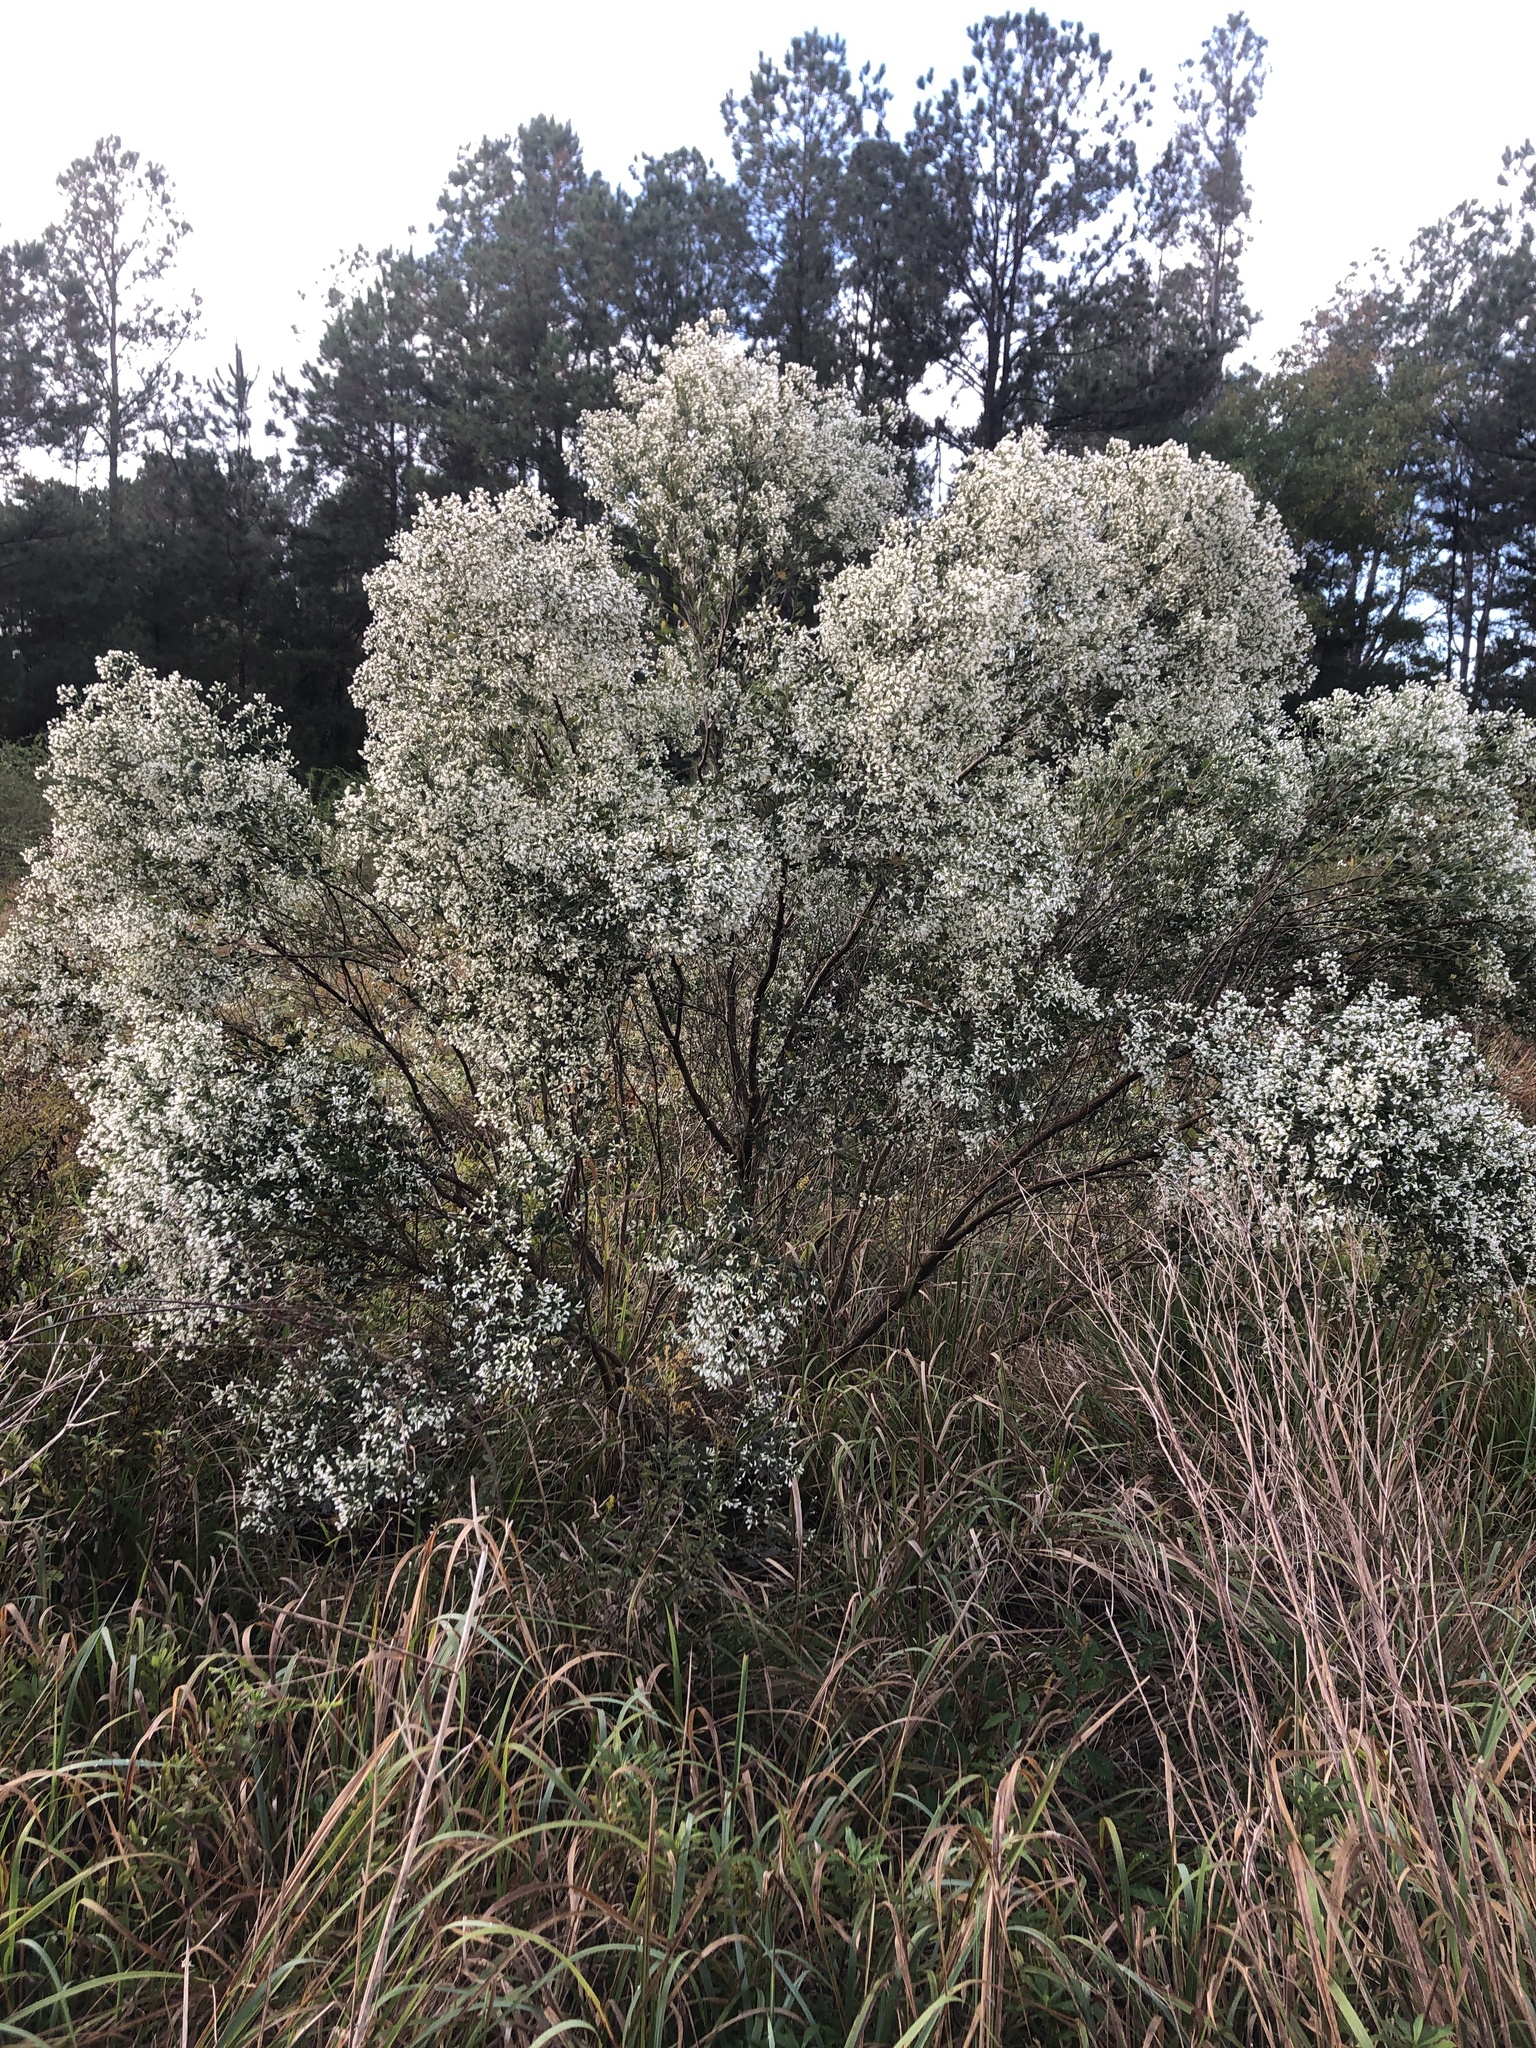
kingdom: Plantae
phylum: Tracheophyta
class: Magnoliopsida
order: Asterales
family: Asteraceae
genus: Baccharis
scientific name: Baccharis halimifolia
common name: Eastern baccharis
